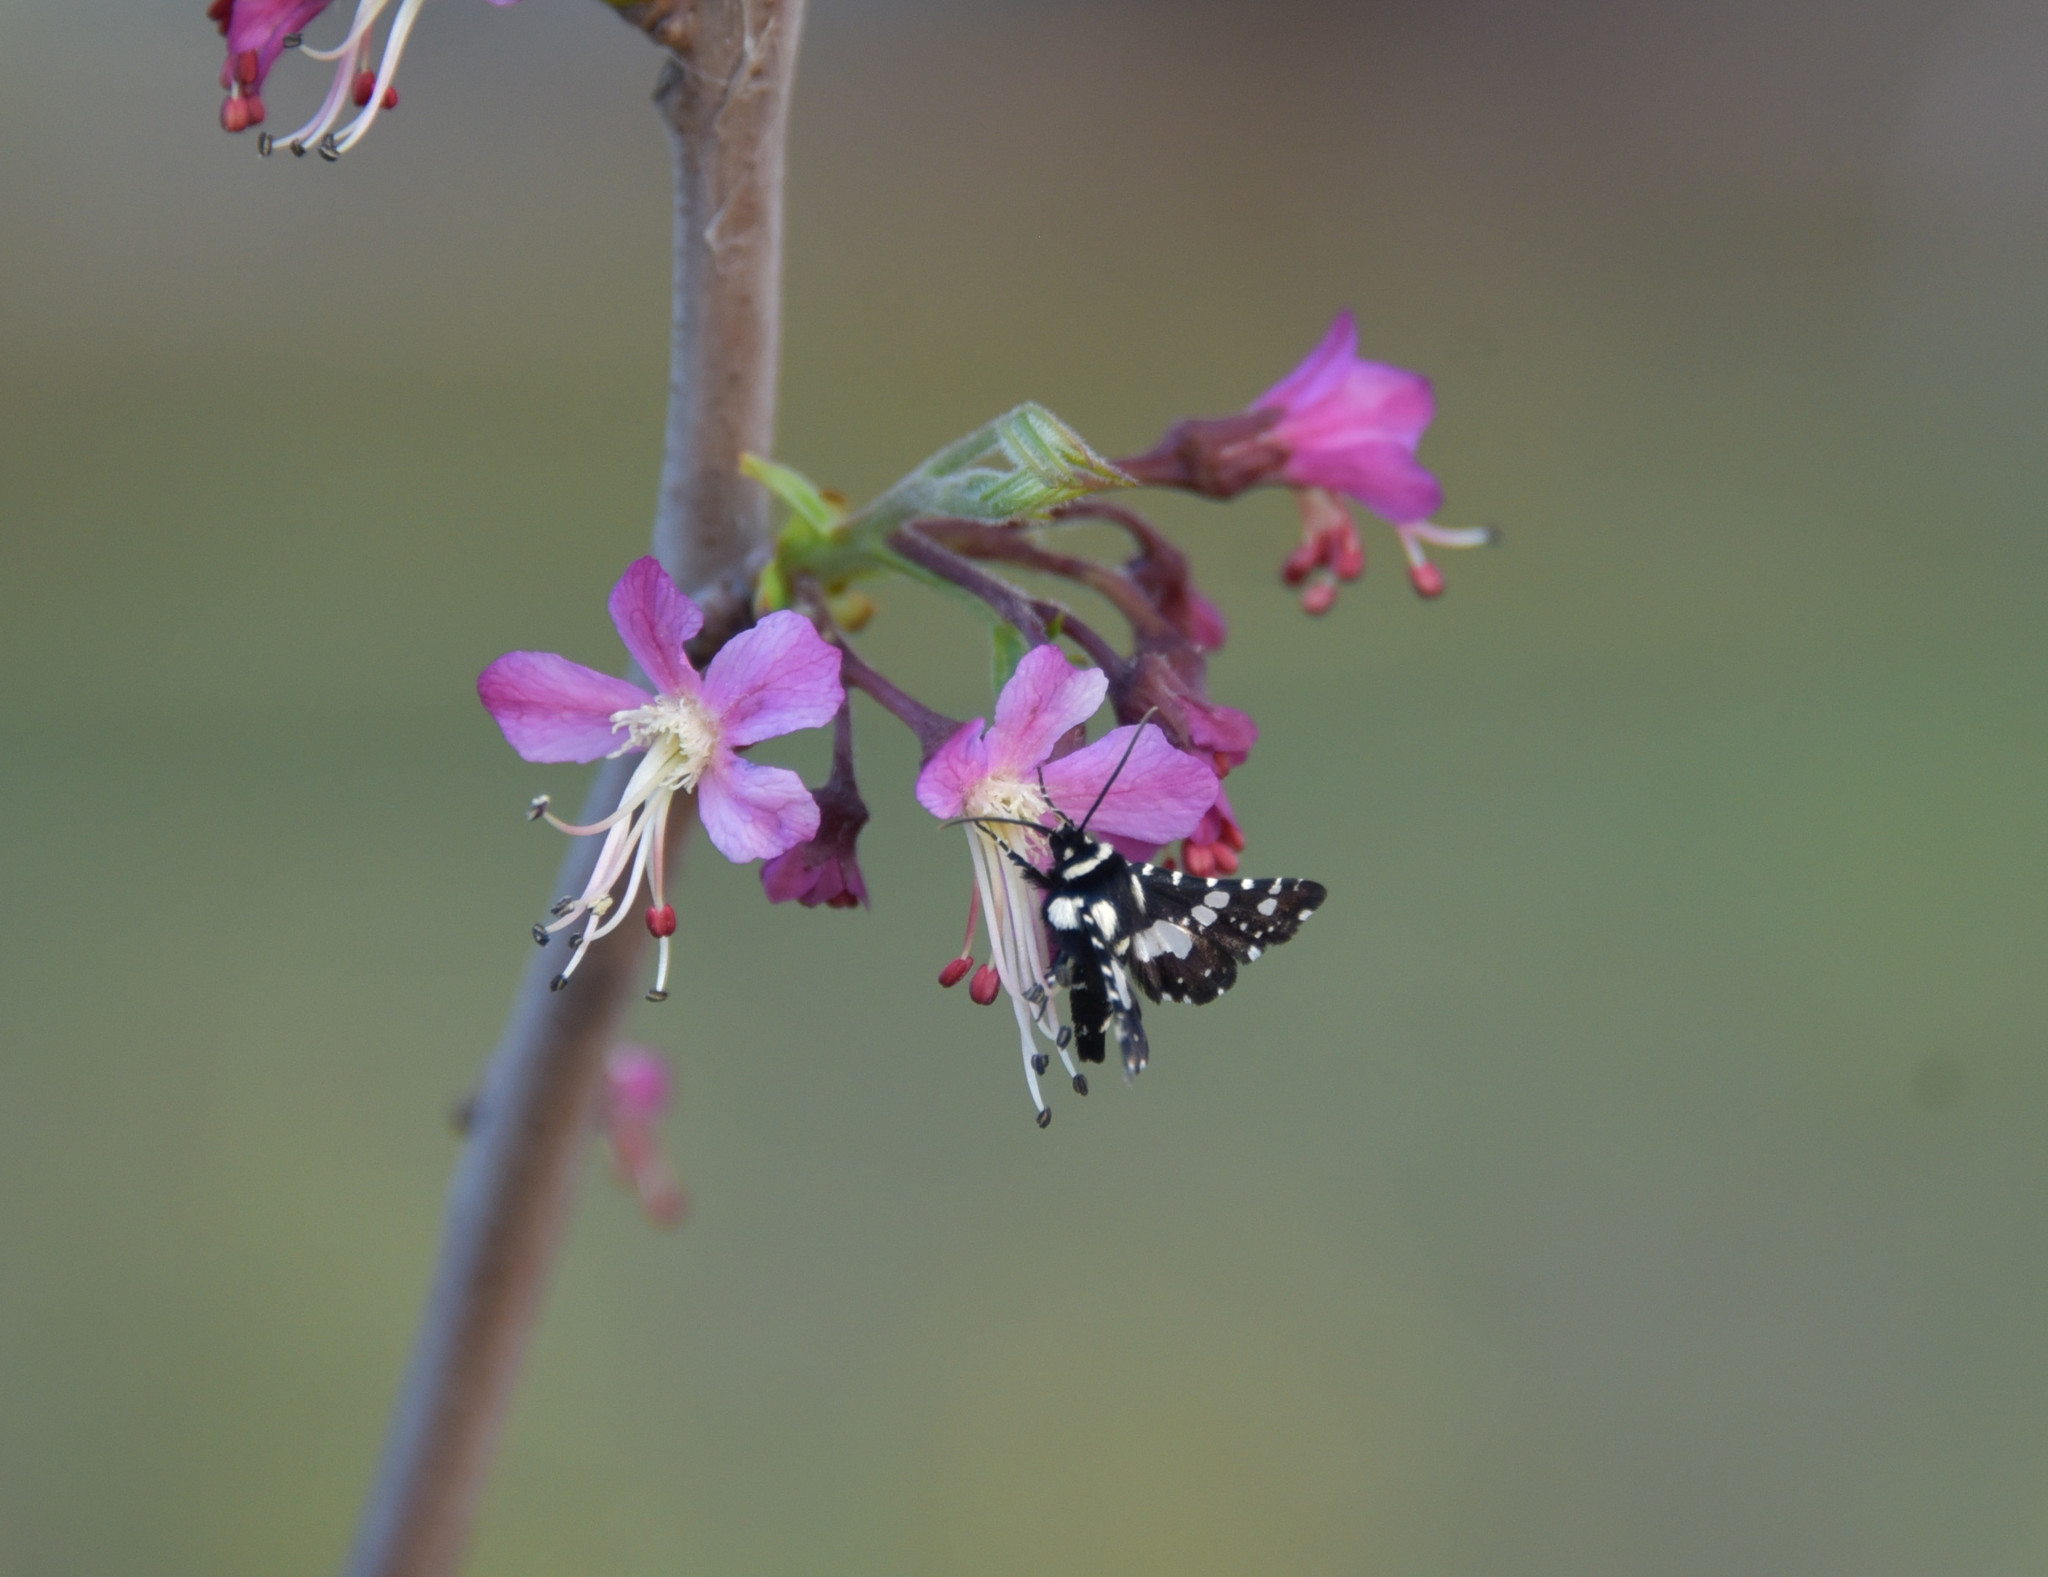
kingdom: Animalia
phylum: Arthropoda
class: Insecta
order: Lepidoptera
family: Thyrididae
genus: Pseudothyris
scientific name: Pseudothyris sepulchralis
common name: Mournful thyris moth
